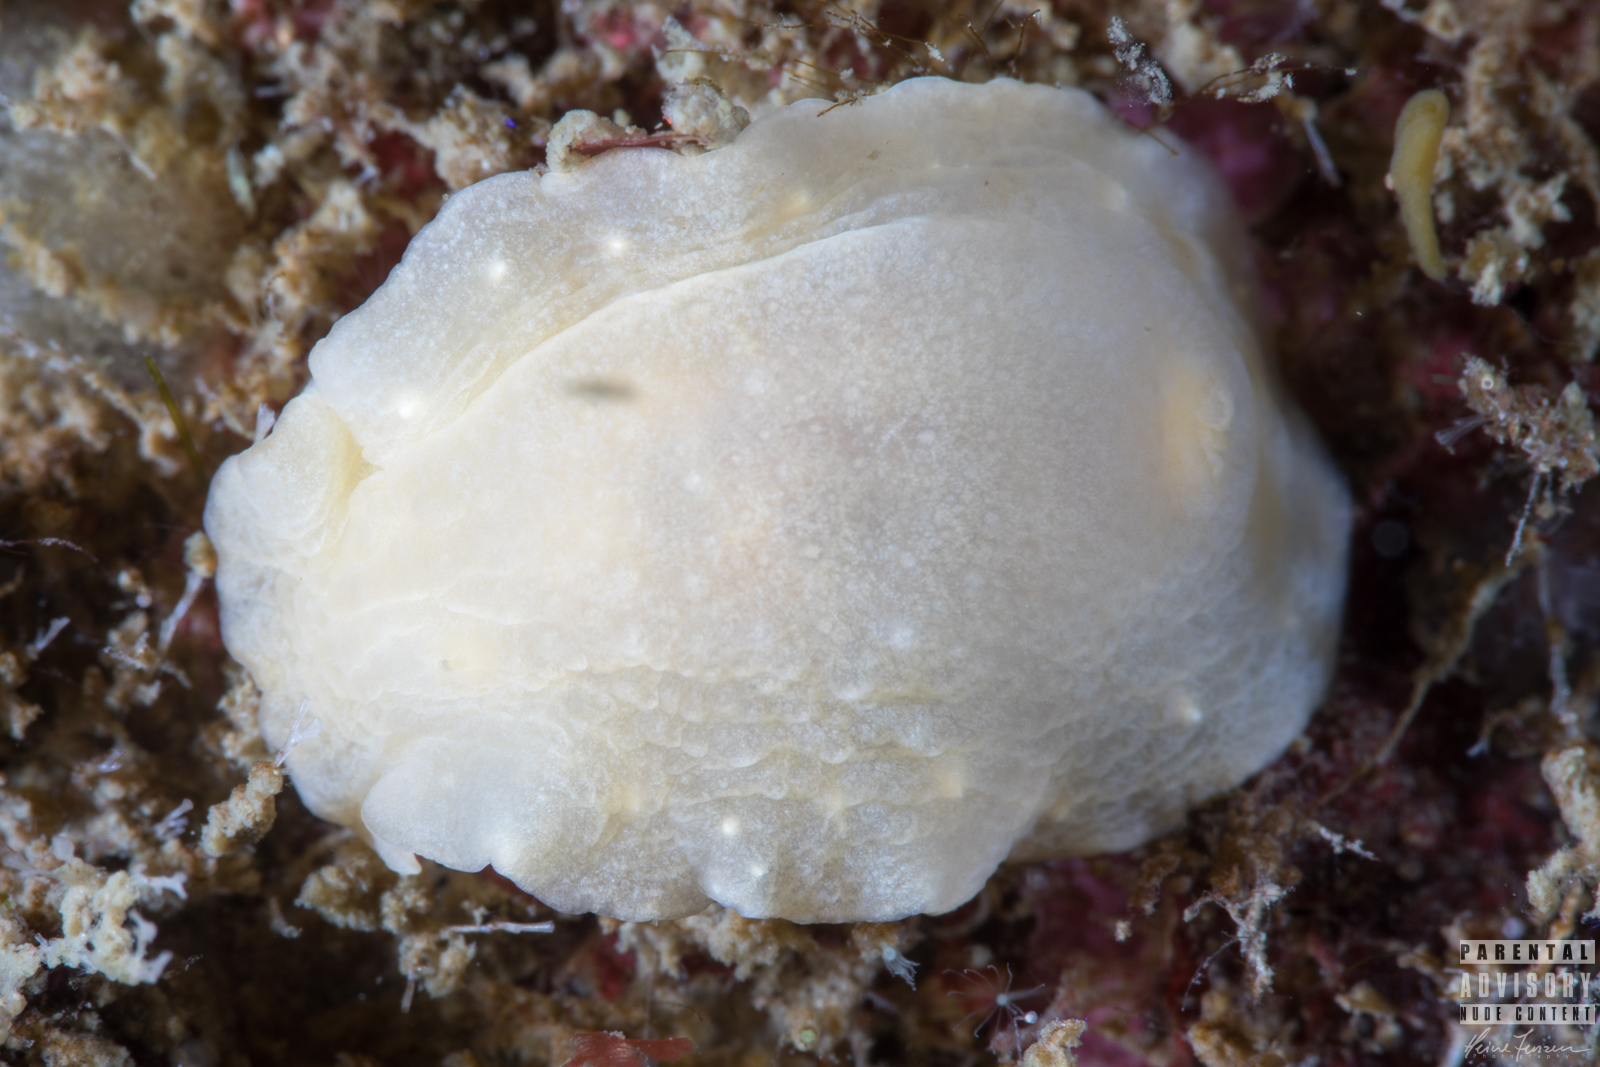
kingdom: Animalia
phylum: Mollusca
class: Gastropoda
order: Nudibranchia
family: Cadlinidae
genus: Cadlina
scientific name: Cadlina laevis
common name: White atlantic cadlina
